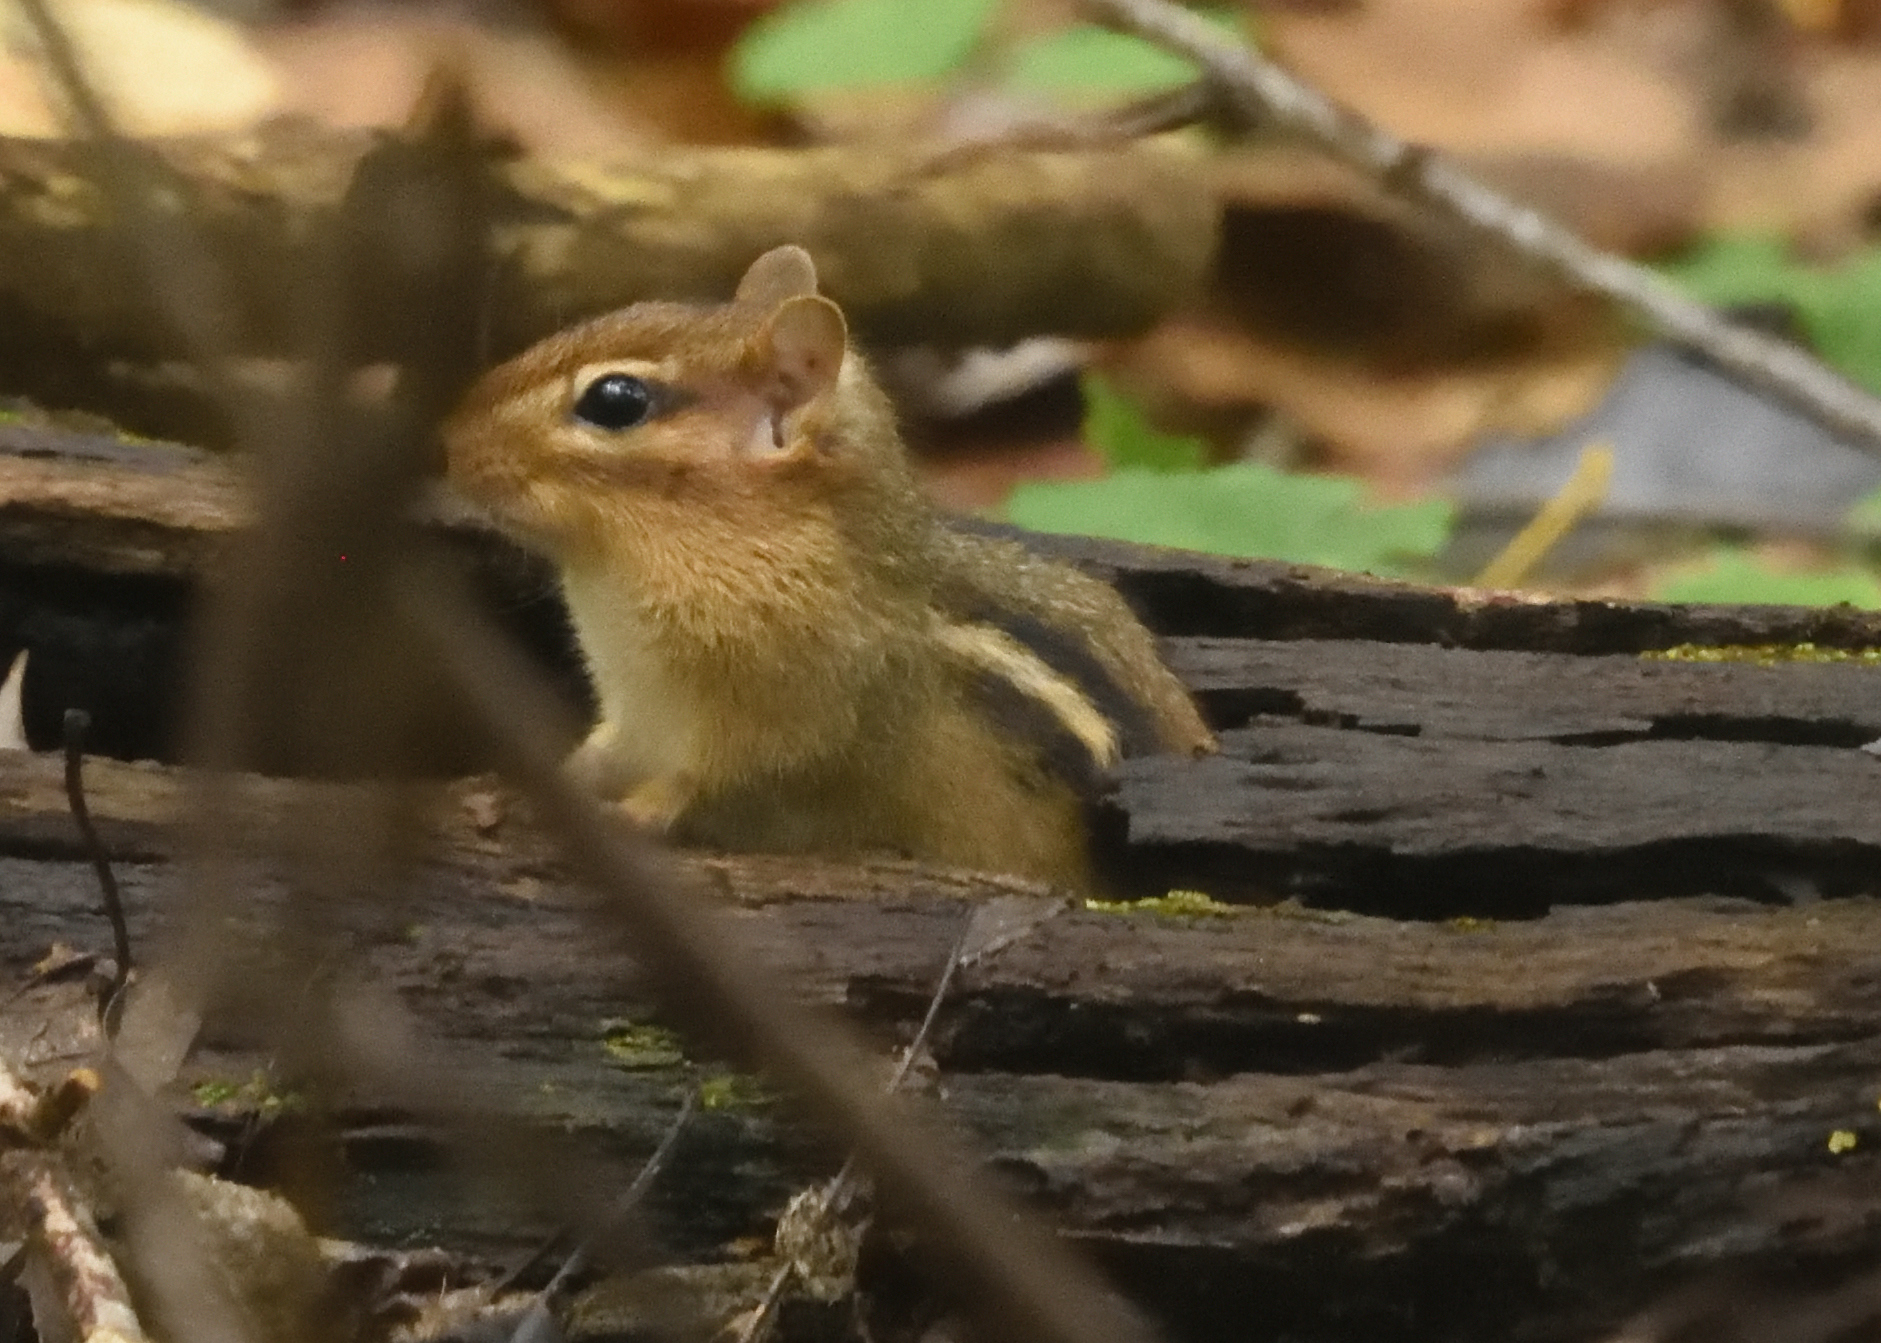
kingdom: Animalia
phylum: Chordata
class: Mammalia
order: Rodentia
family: Sciuridae
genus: Tamias
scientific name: Tamias striatus
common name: Eastern chipmunk
